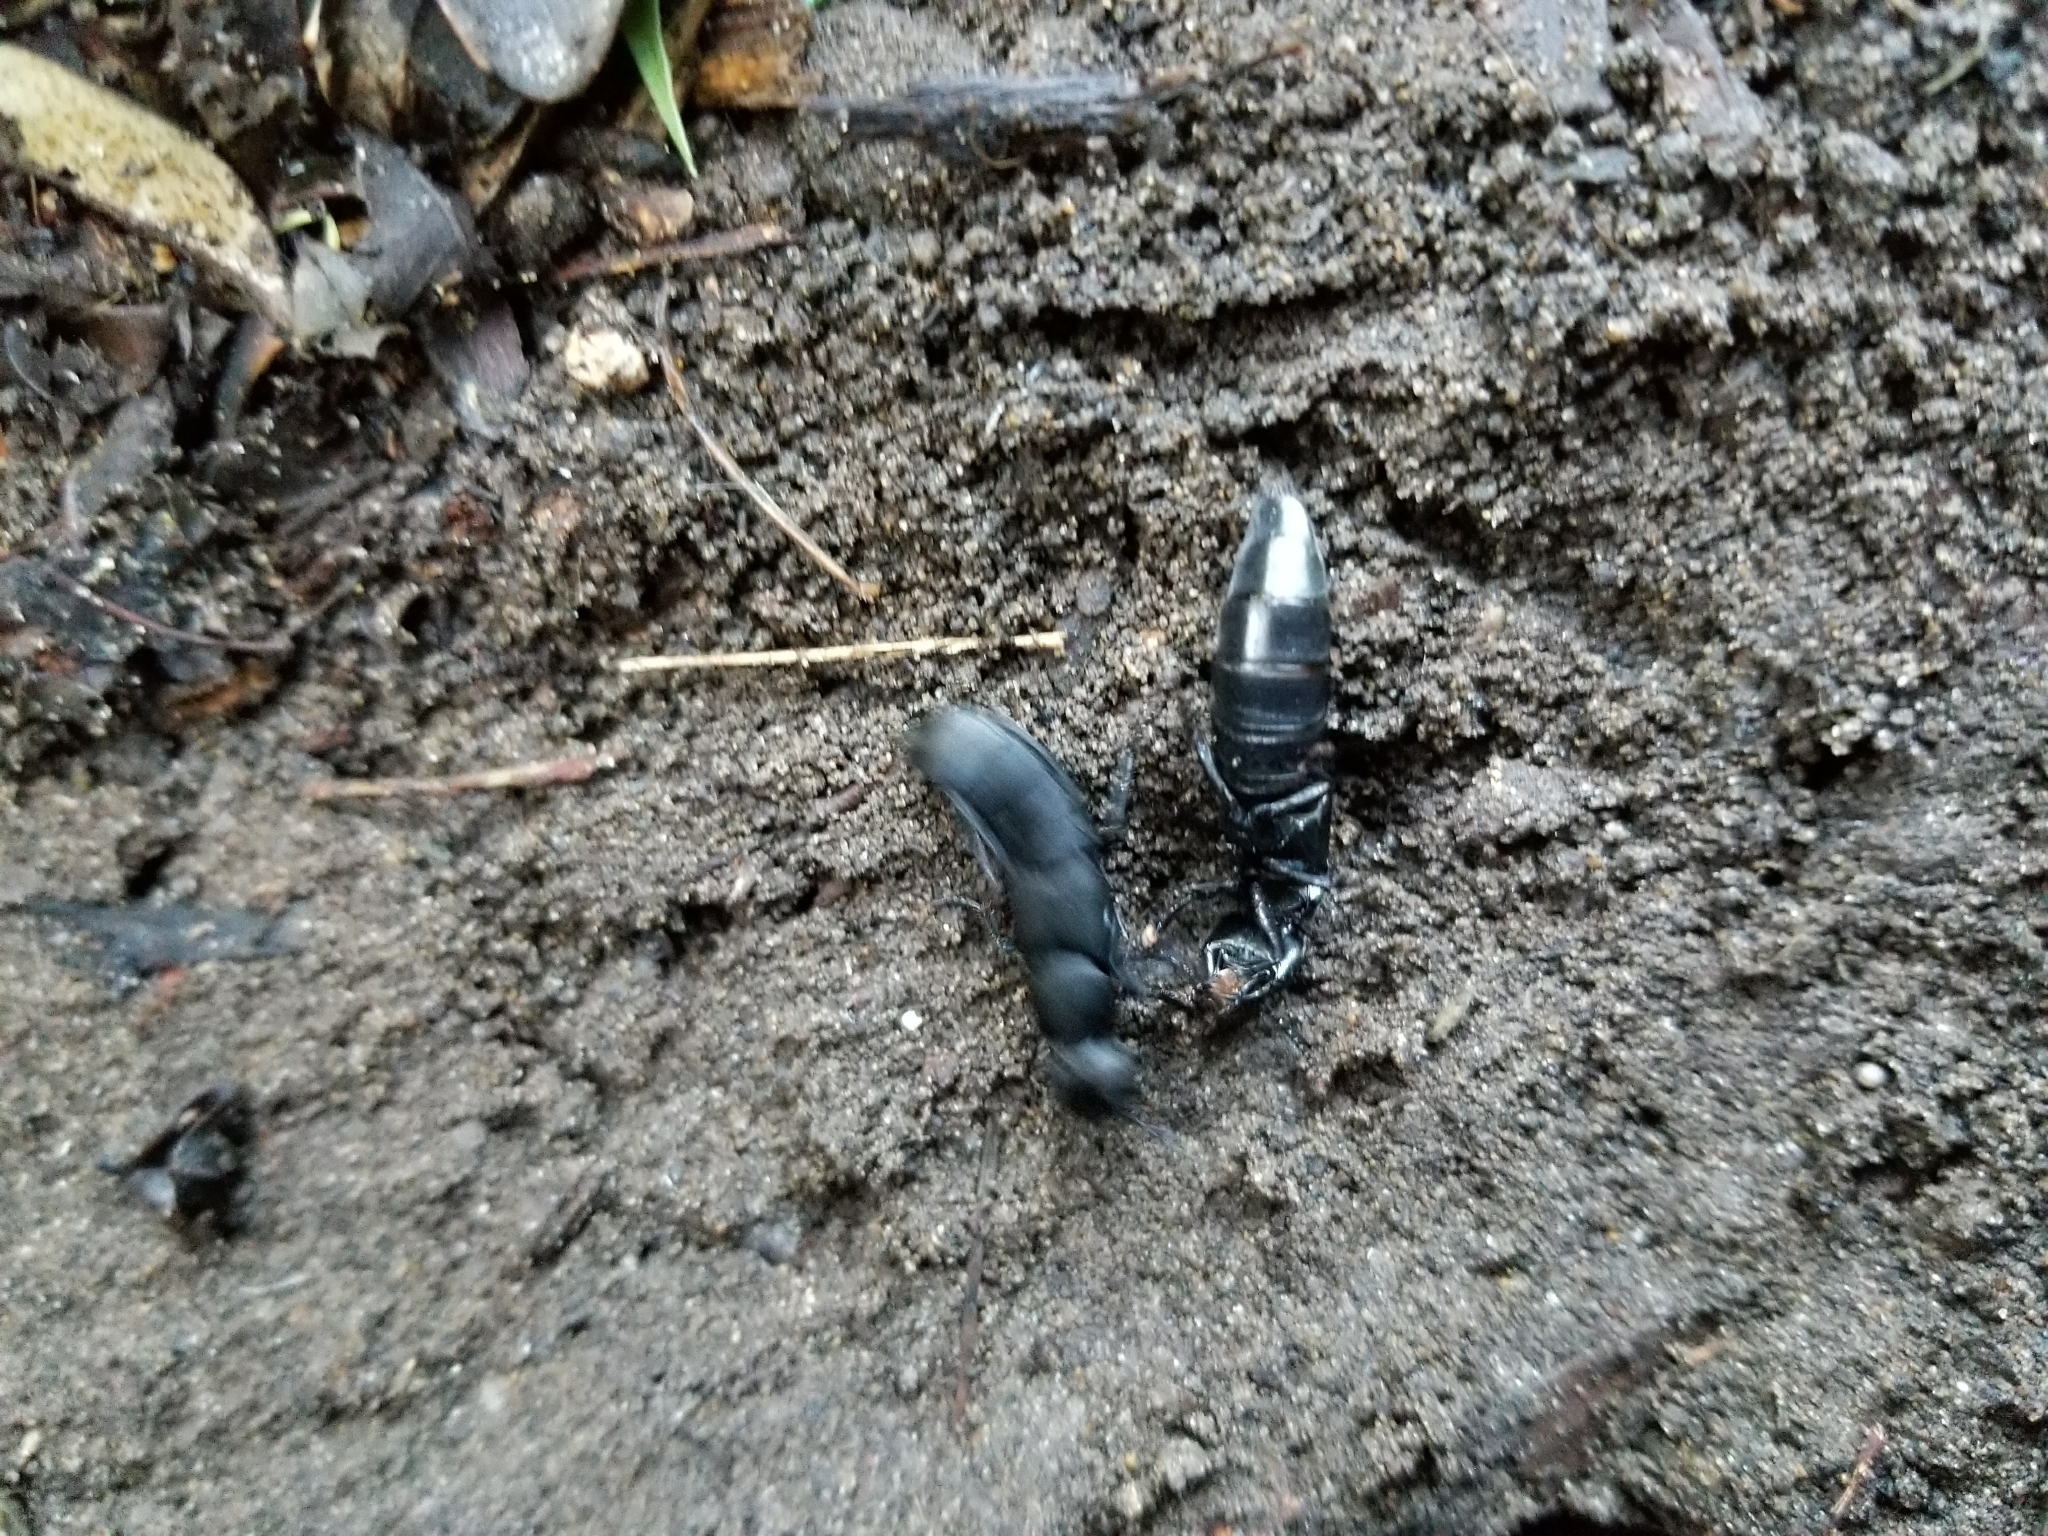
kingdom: Animalia
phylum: Arthropoda
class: Insecta
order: Coleoptera
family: Staphylinidae
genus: Ocypus
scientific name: Ocypus olens
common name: Devil's coach-horse
